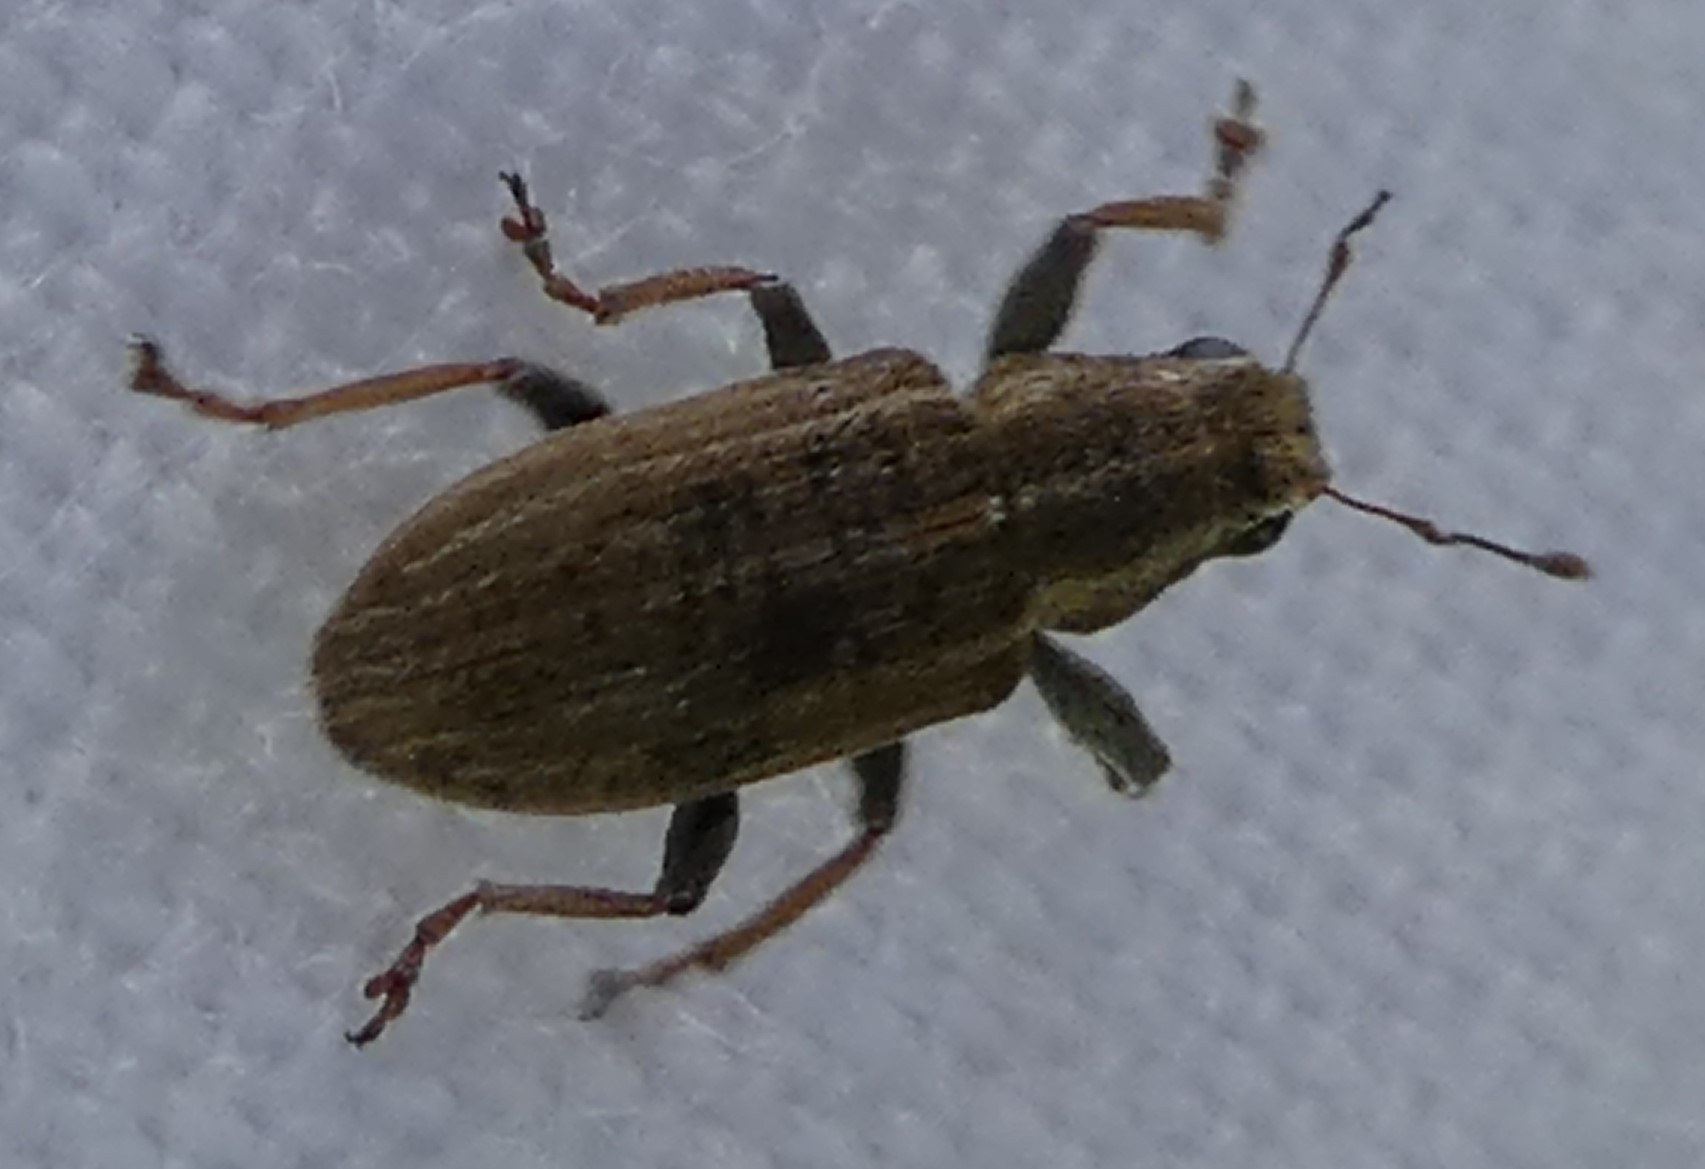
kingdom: Animalia
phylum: Arthropoda
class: Insecta
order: Coleoptera
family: Curculionidae
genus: Sitona
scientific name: Sitona lineatus
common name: Weevil
